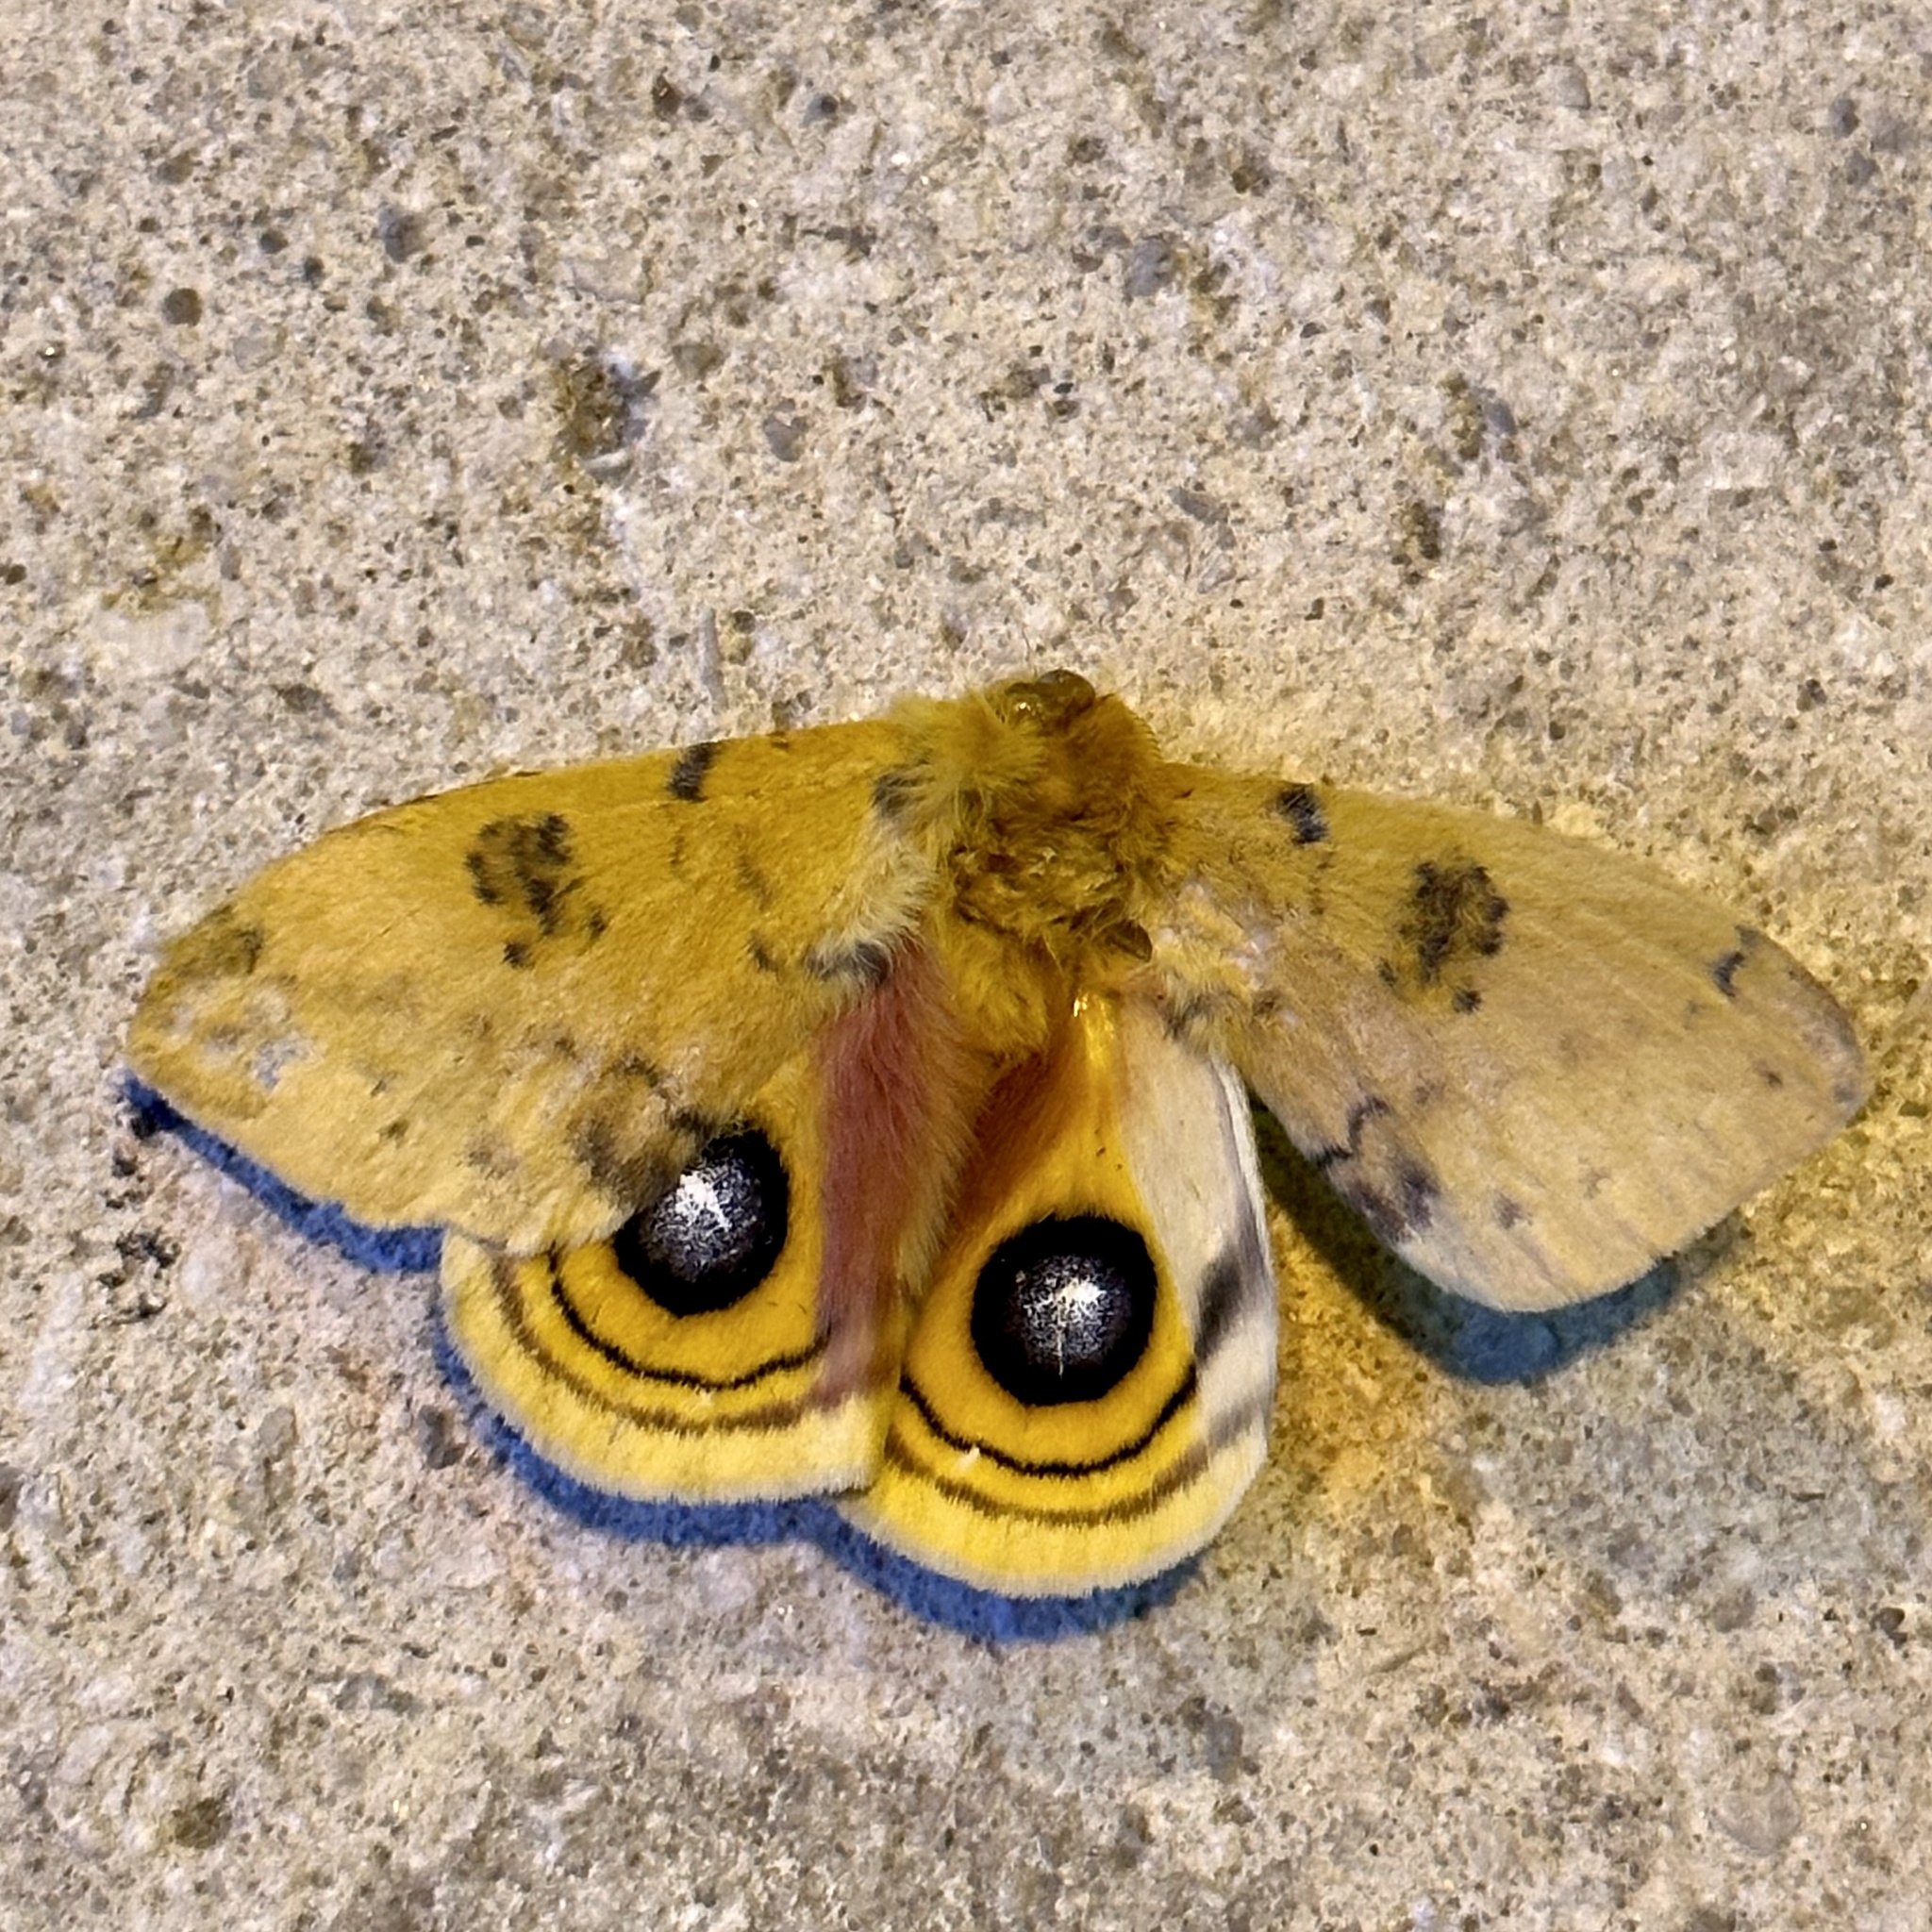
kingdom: Animalia
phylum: Arthropoda
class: Insecta
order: Lepidoptera
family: Saturniidae
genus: Automeris
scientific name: Automeris io
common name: Io moth
